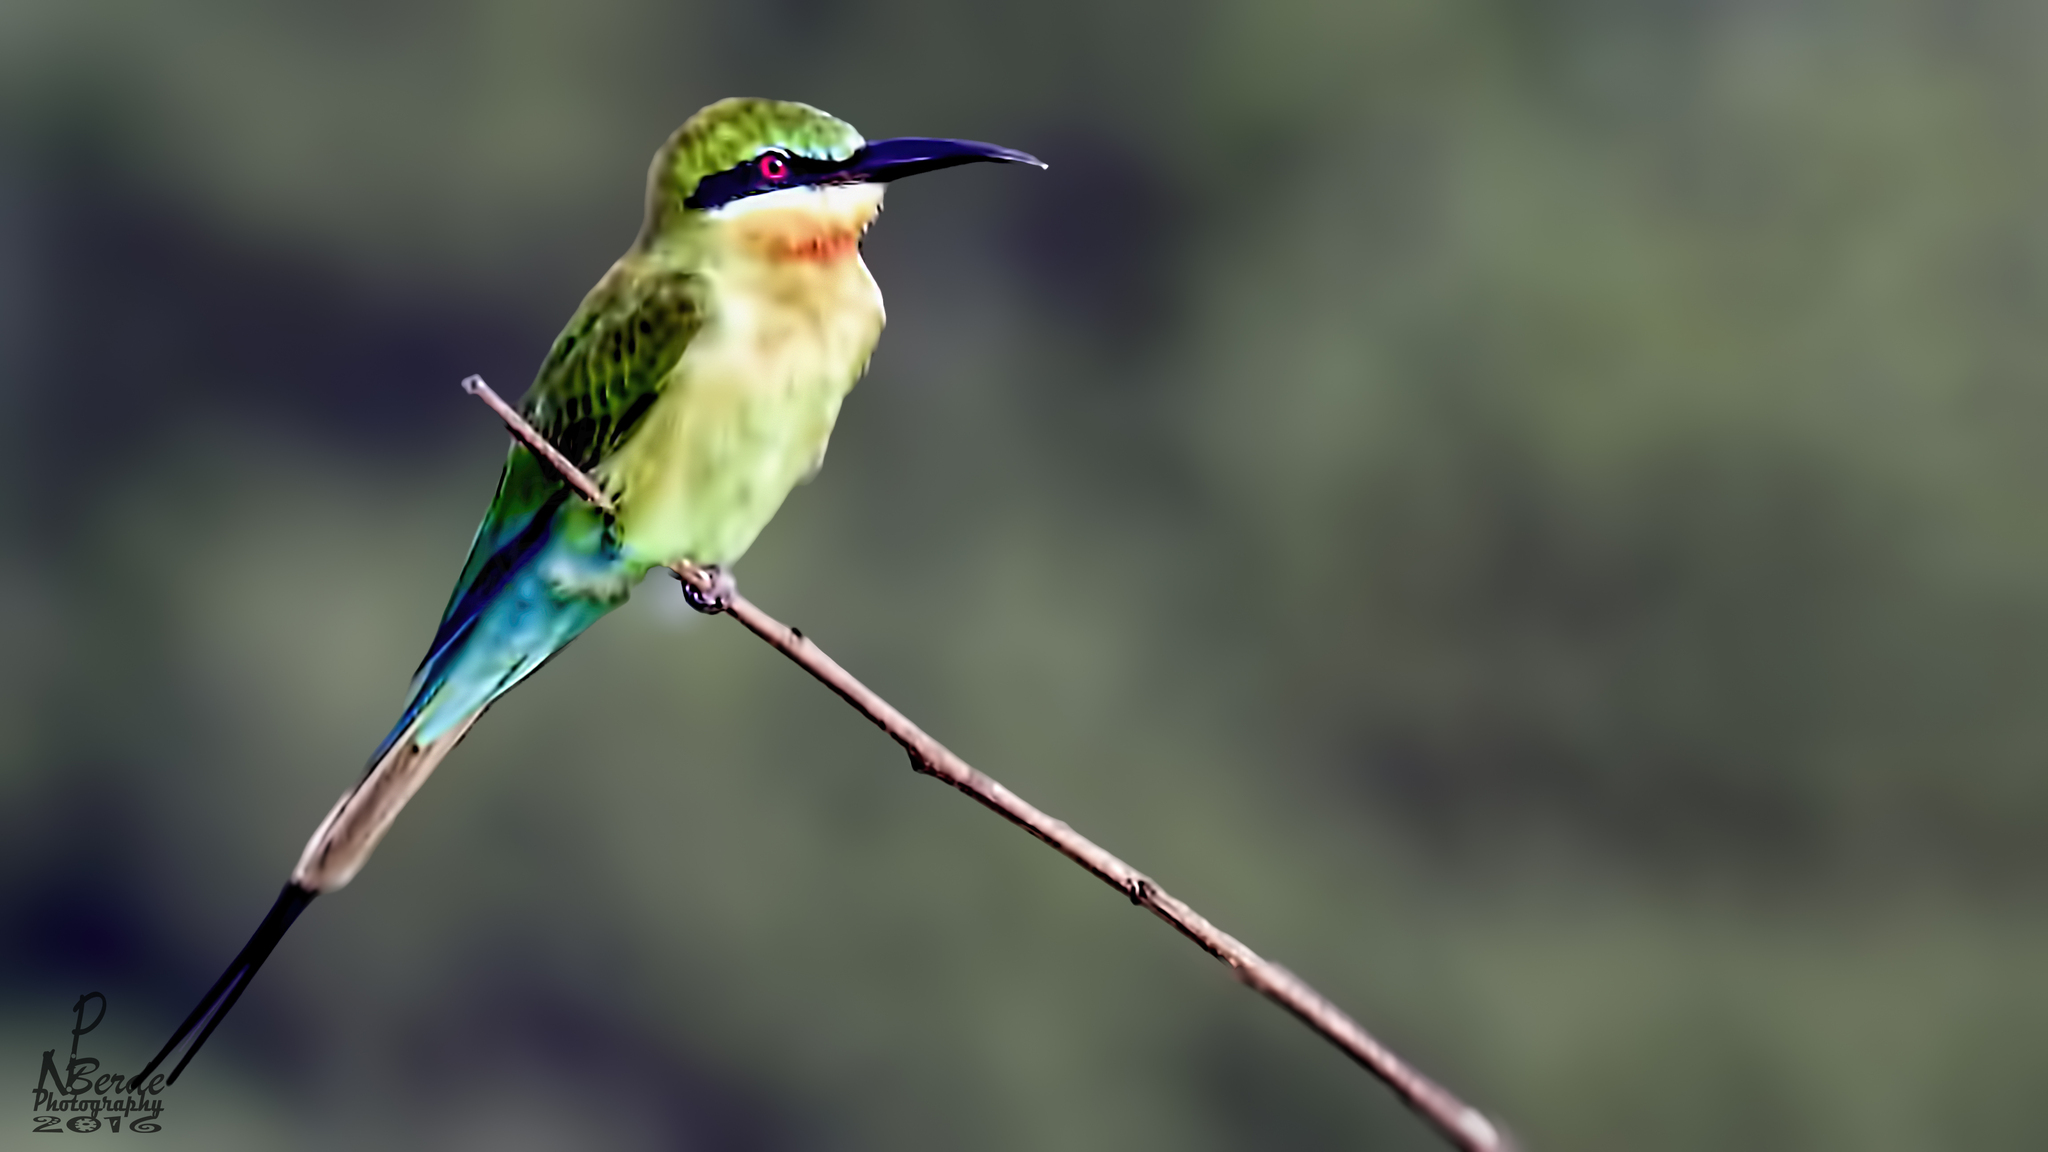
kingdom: Animalia
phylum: Chordata
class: Aves
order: Coraciiformes
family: Meropidae
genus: Merops
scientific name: Merops philippinus
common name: Blue-tailed bee-eater
